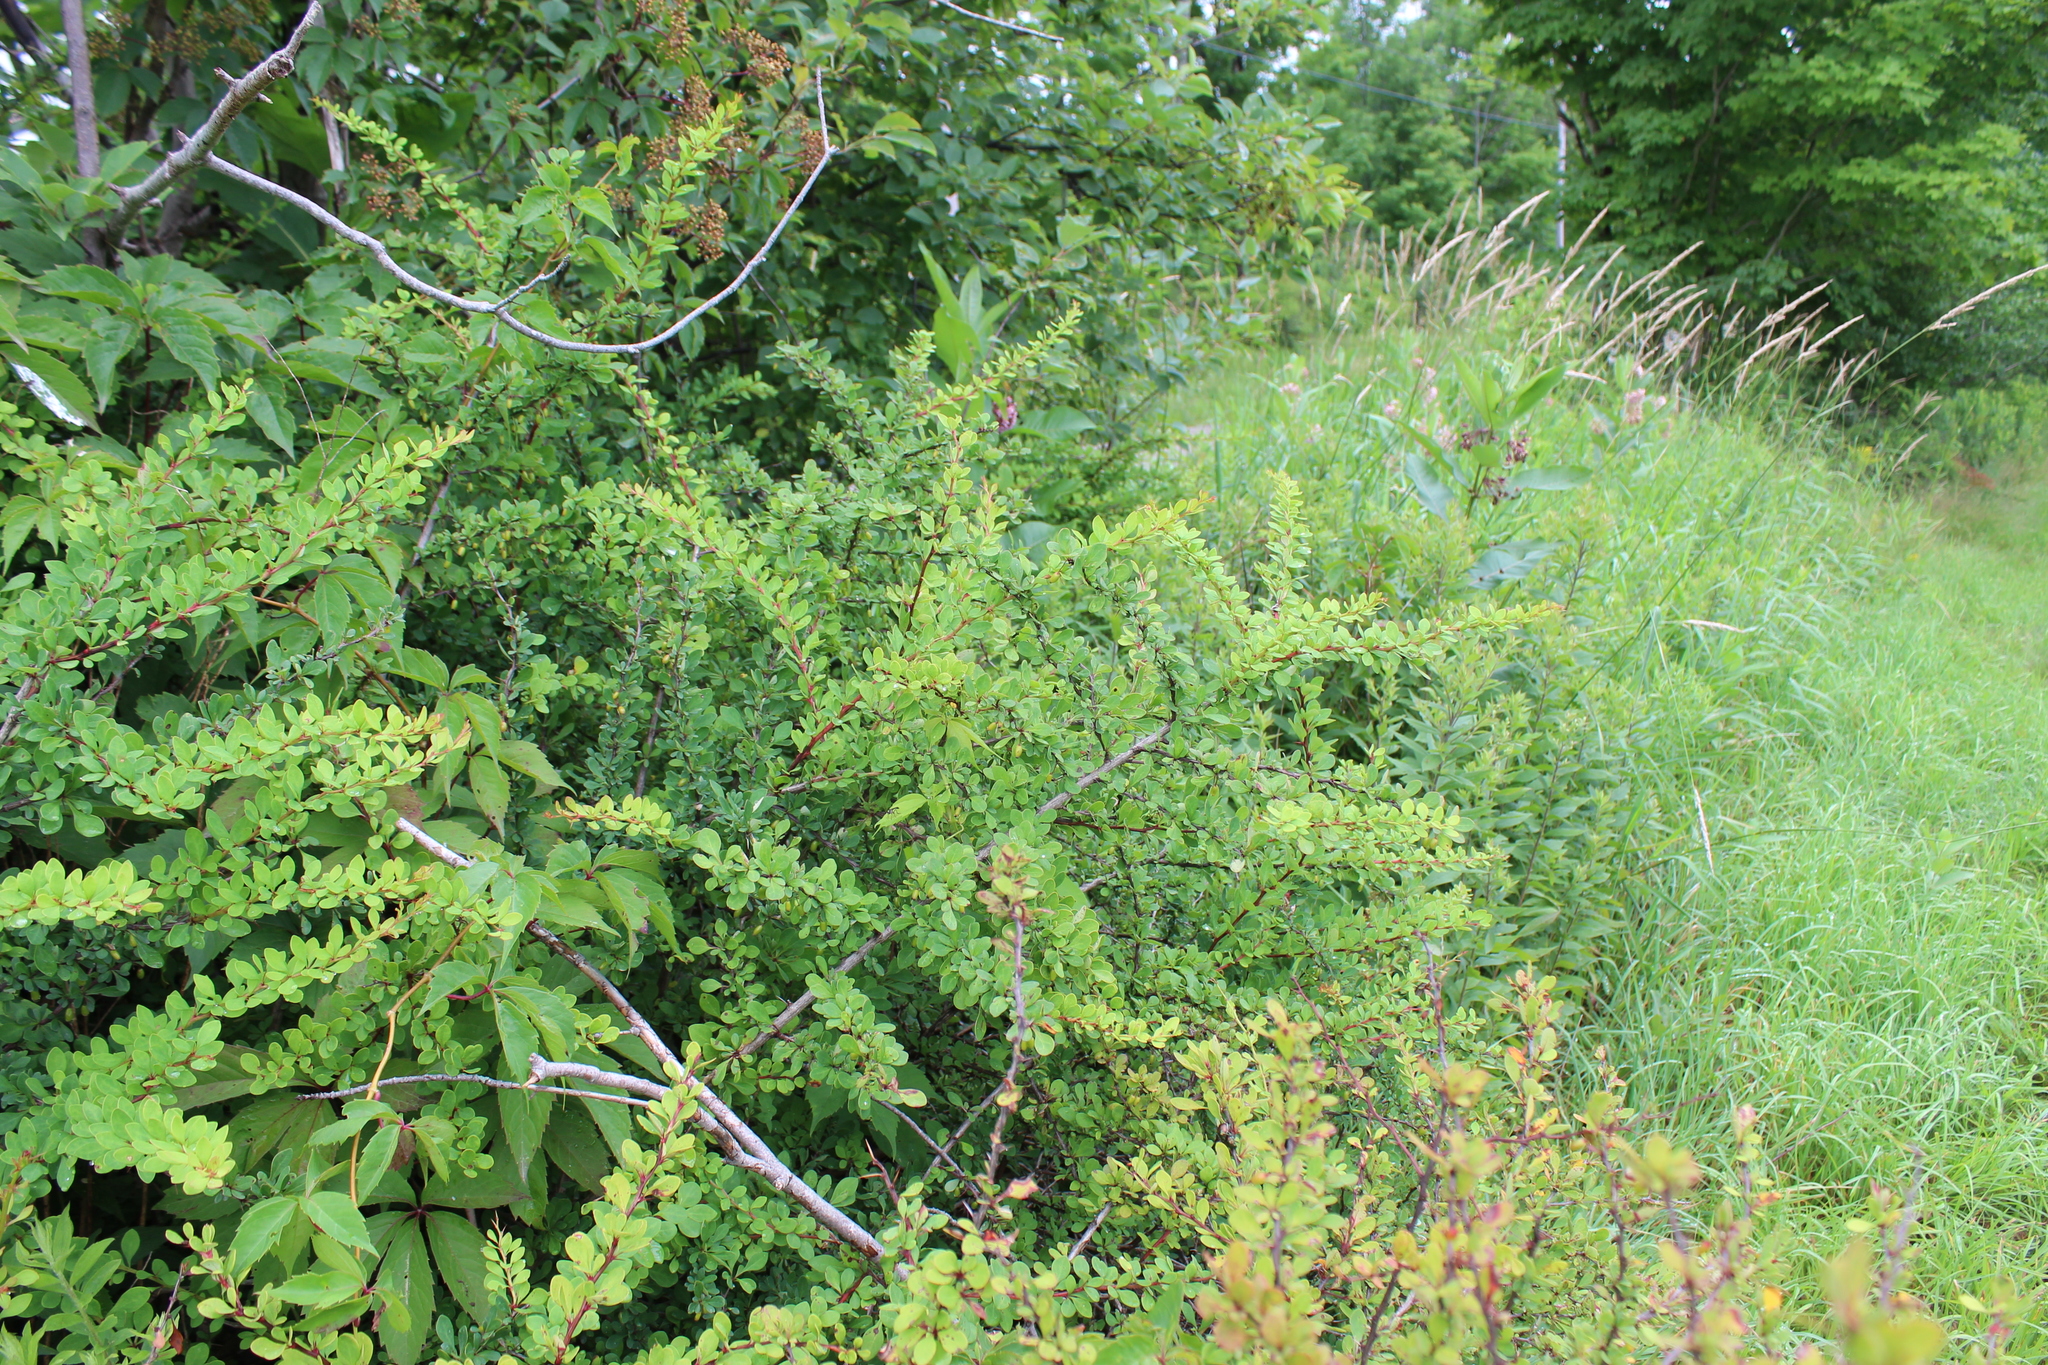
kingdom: Plantae
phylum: Tracheophyta
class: Magnoliopsida
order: Ranunculales
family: Berberidaceae
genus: Berberis
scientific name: Berberis thunbergii
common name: Japanese barberry
